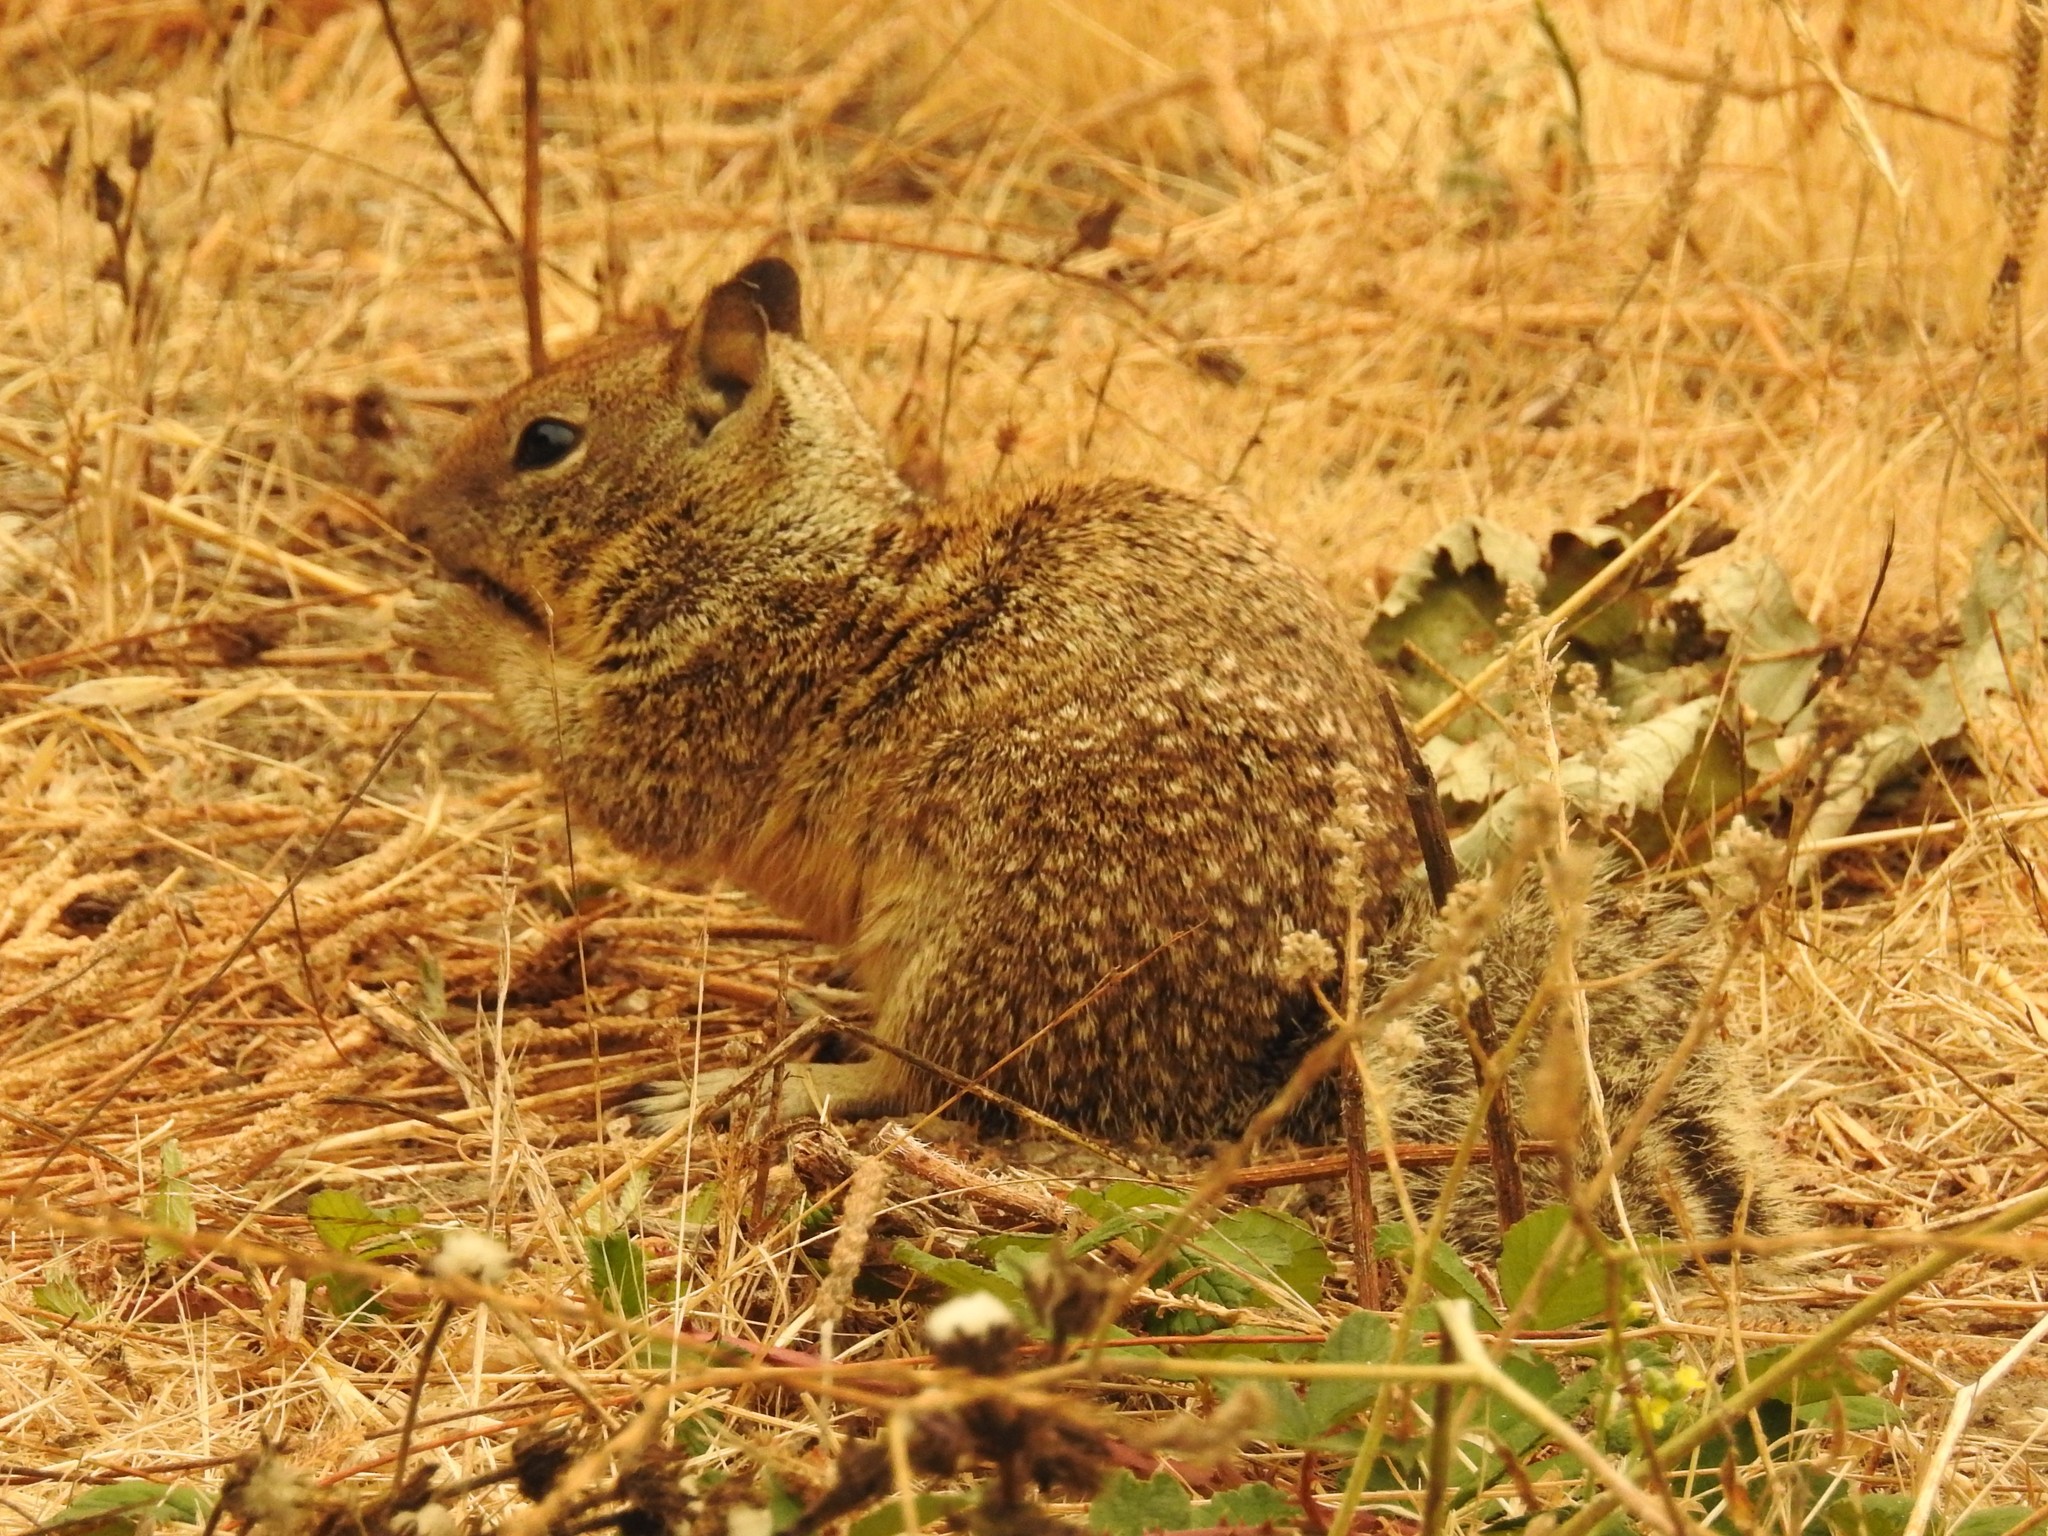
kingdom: Animalia
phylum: Chordata
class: Mammalia
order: Rodentia
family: Sciuridae
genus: Otospermophilus
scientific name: Otospermophilus beecheyi
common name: California ground squirrel
